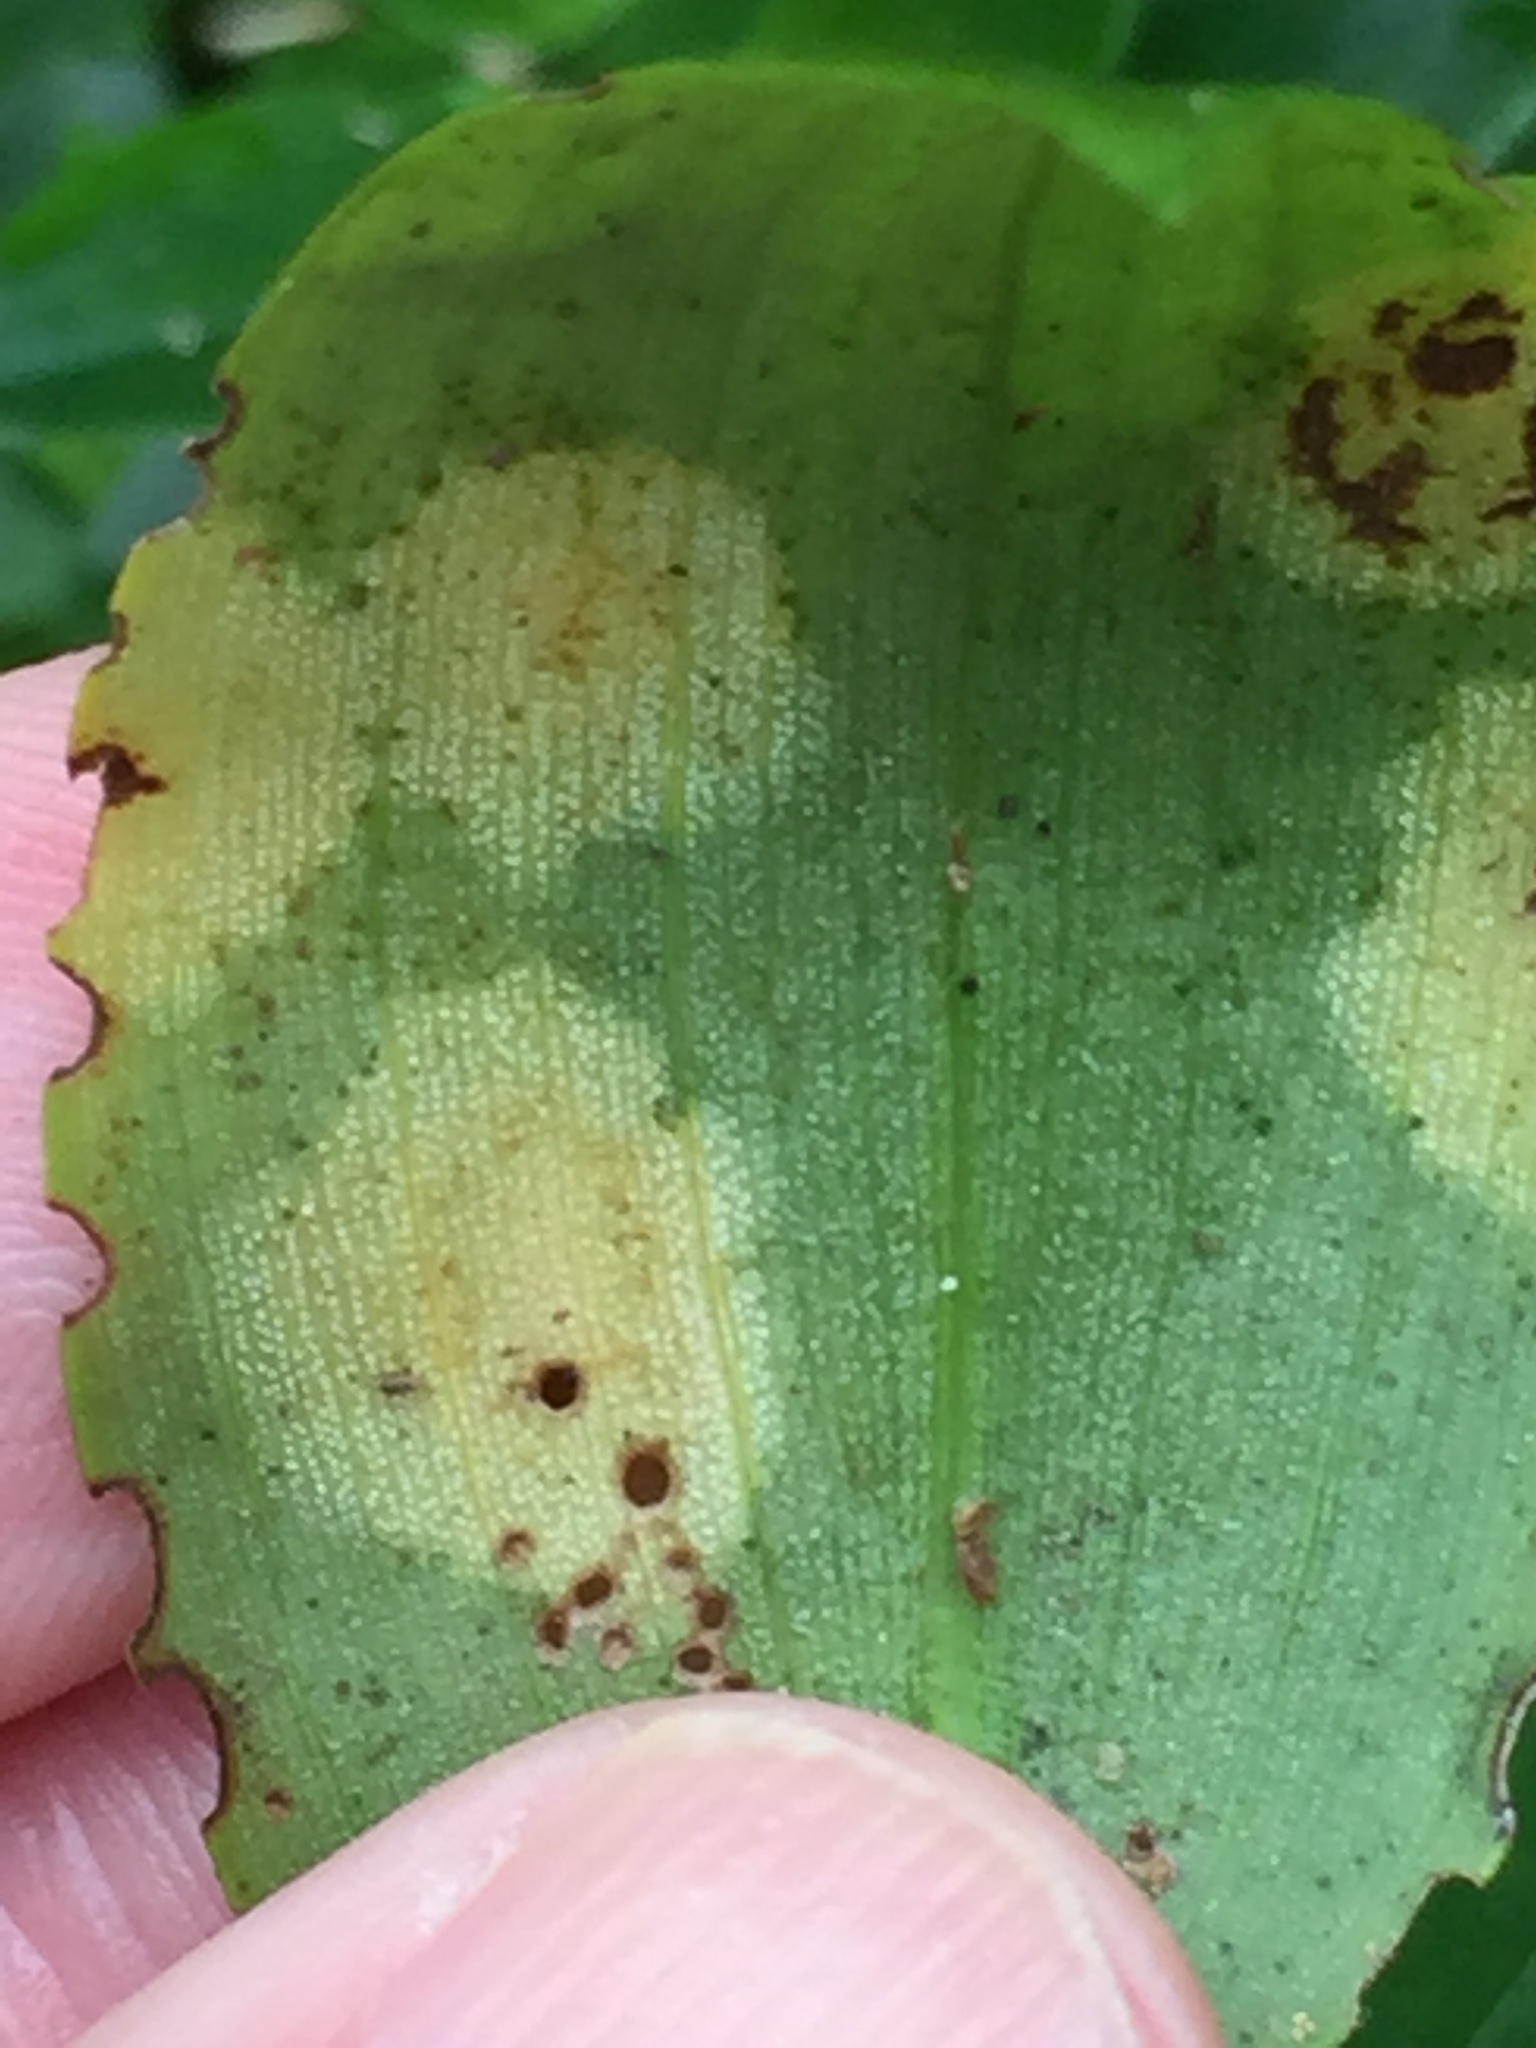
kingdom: Fungi
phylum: Basidiomycota
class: Exobasidiomycetes
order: Exobasidiales
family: Brachybasidiaceae
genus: Kordyana
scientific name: Kordyana brasiliensis
